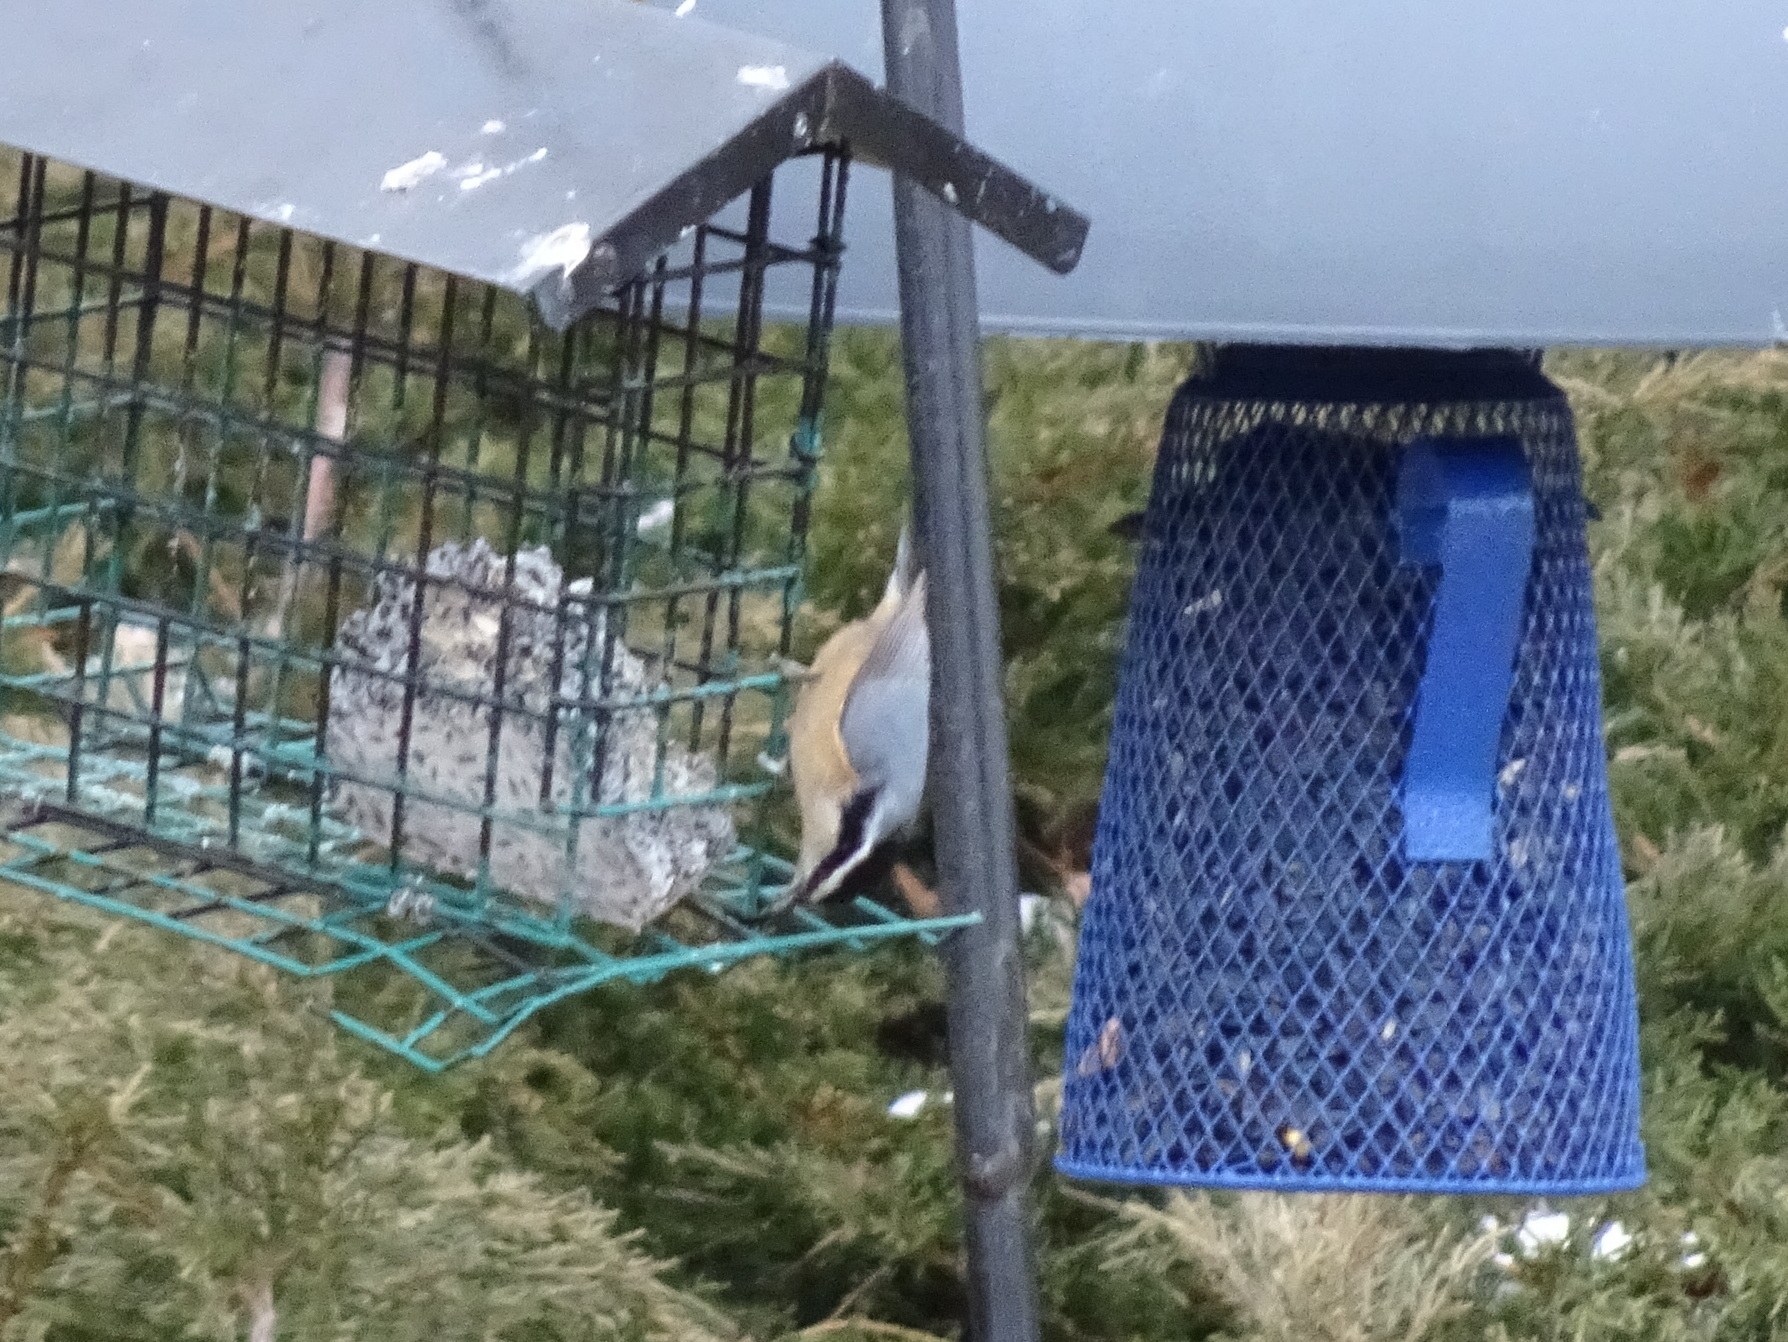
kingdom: Animalia
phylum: Chordata
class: Aves
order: Passeriformes
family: Sittidae
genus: Sitta
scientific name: Sitta canadensis
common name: Red-breasted nuthatch
